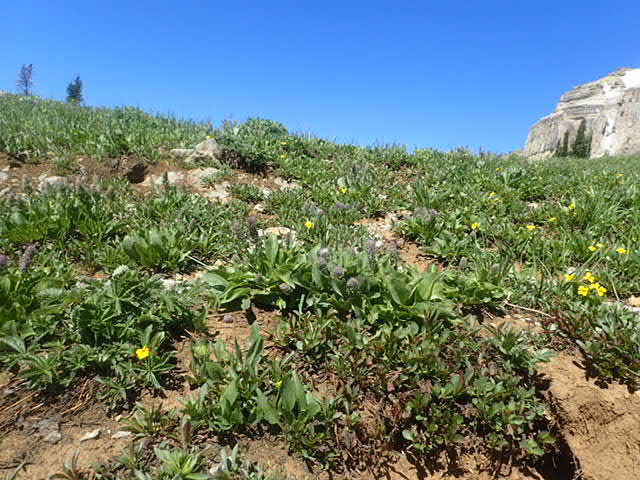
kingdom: Plantae
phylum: Tracheophyta
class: Magnoliopsida
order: Lamiales
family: Plantaginaceae
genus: Synthyris
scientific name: Synthyris wyomingensis
